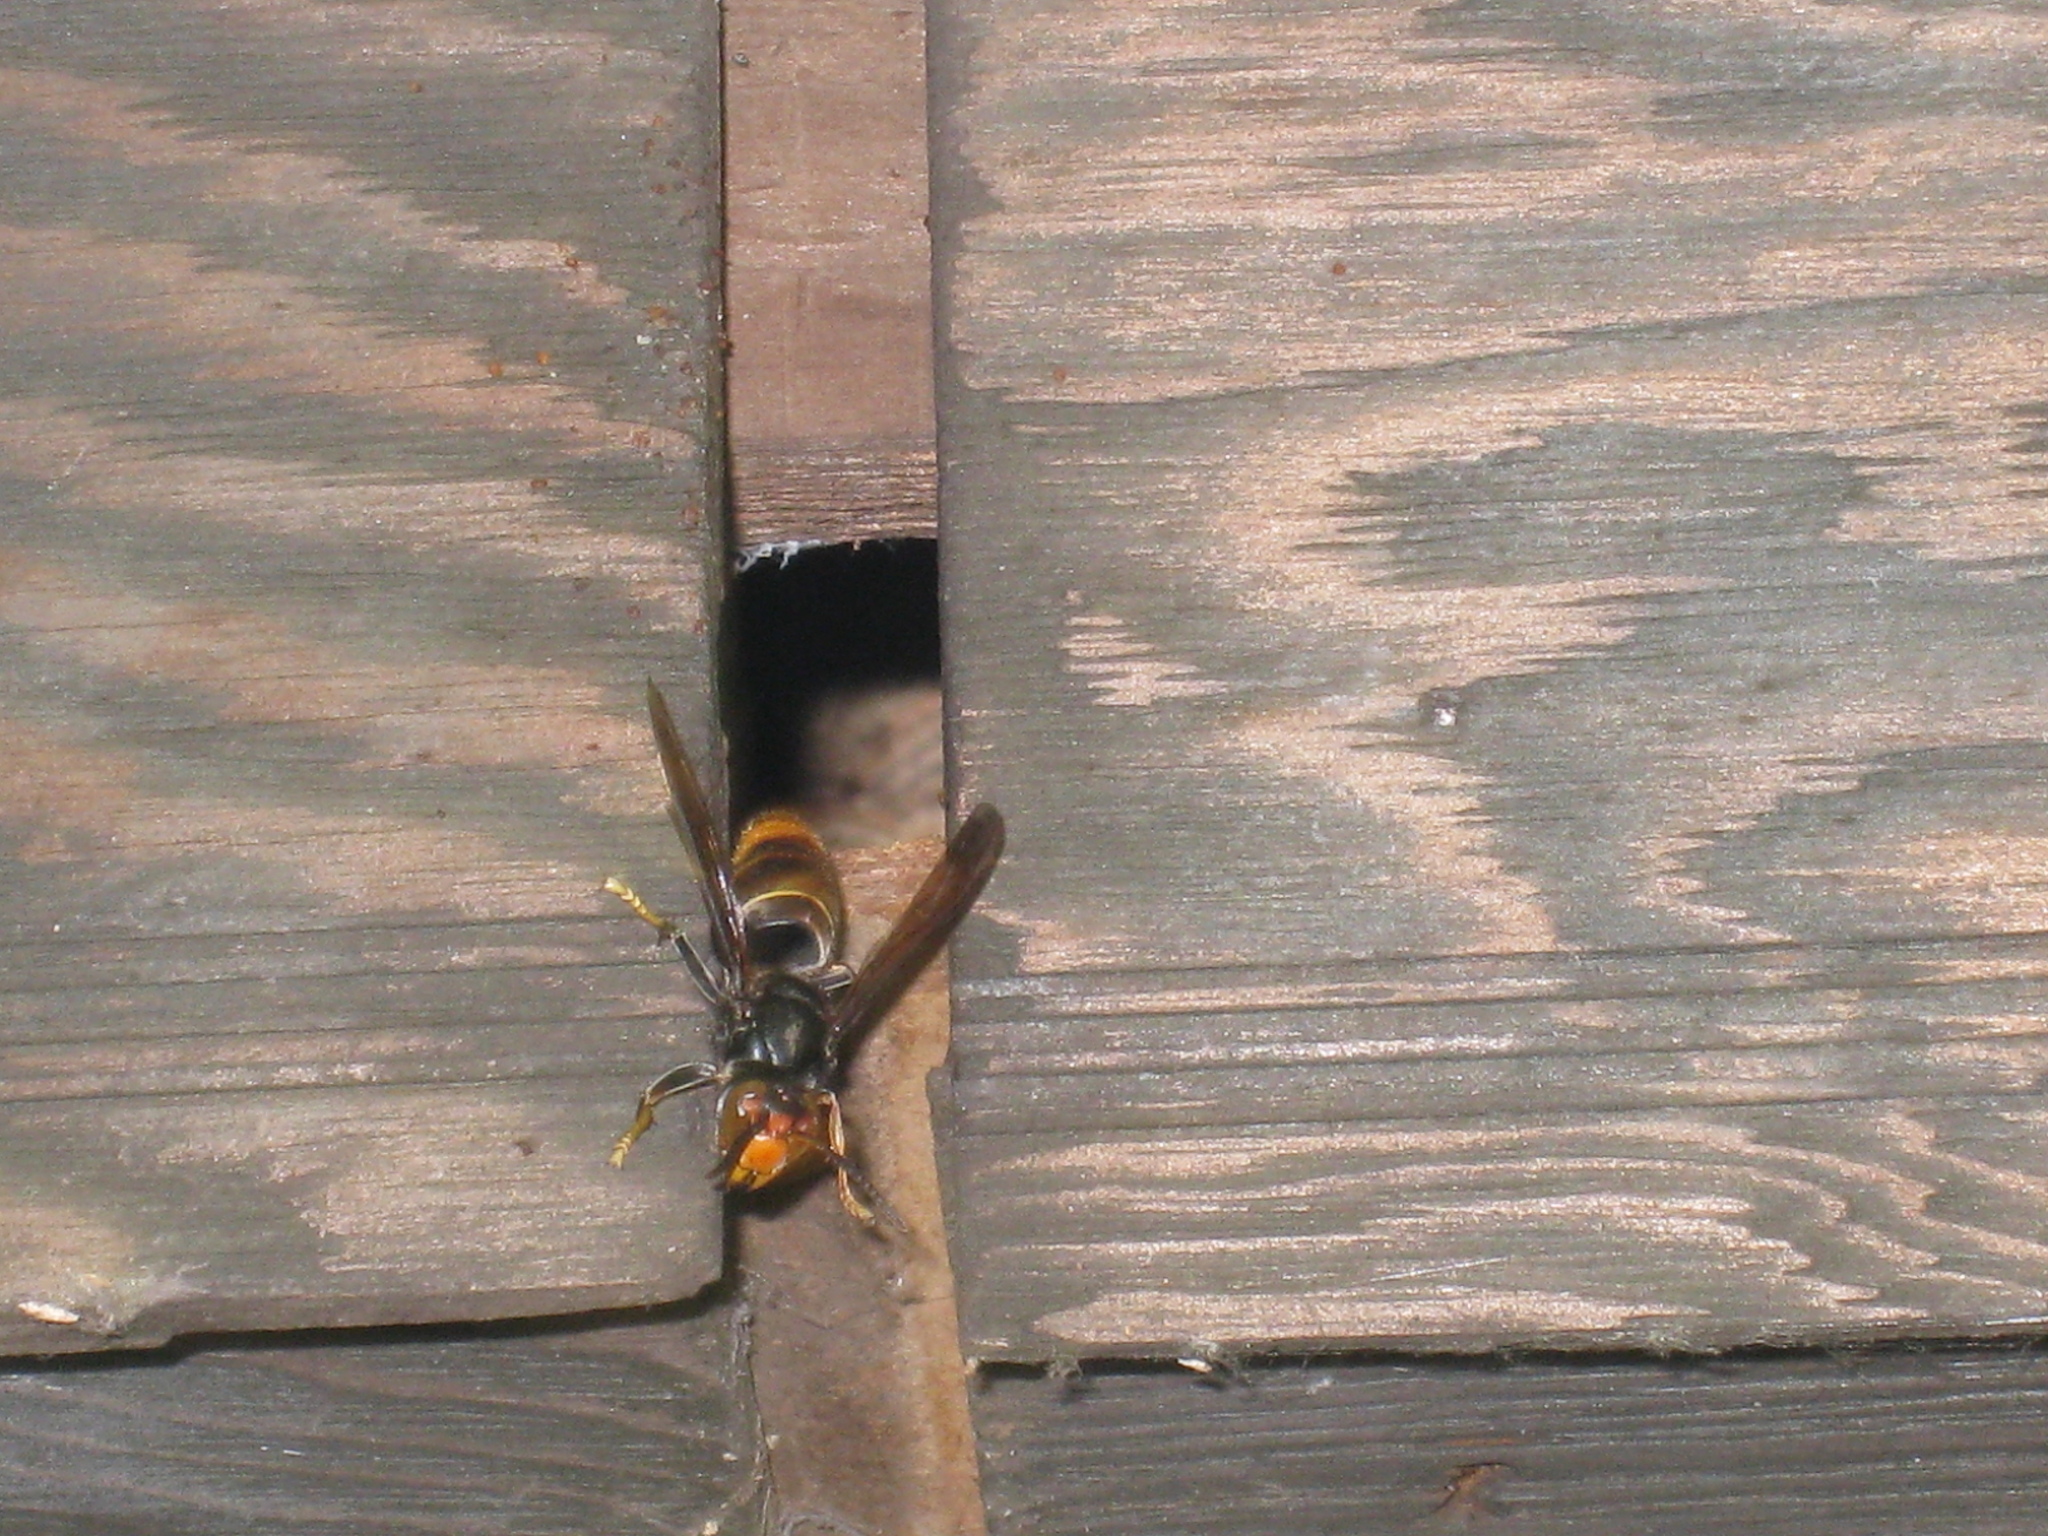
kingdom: Animalia
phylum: Arthropoda
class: Insecta
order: Hymenoptera
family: Vespidae
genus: Vespa
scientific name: Vespa velutina
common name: Asian hornet
